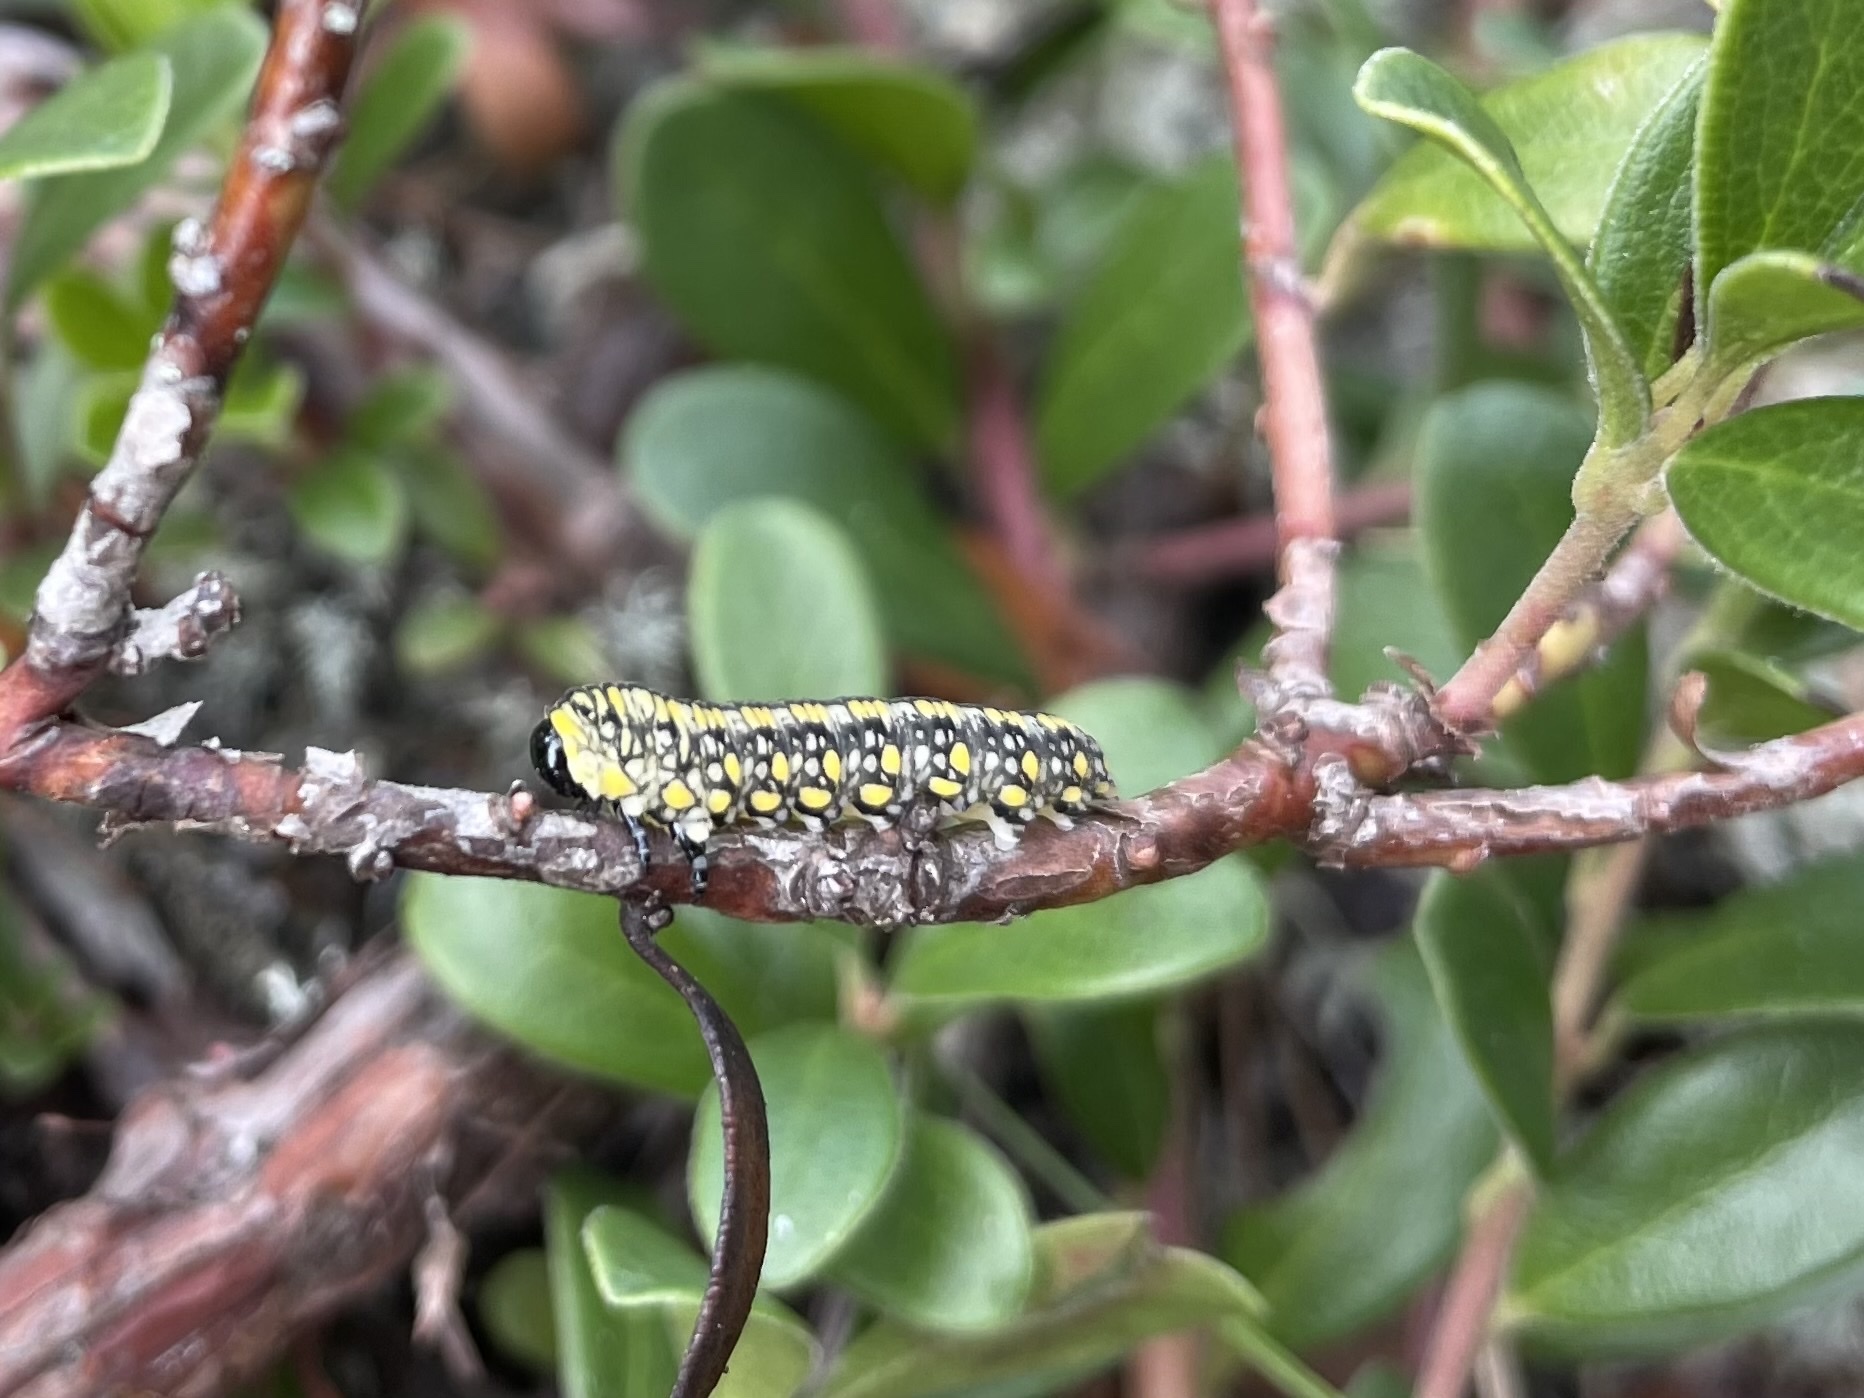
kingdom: Animalia
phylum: Arthropoda
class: Insecta
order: Hymenoptera
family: Diprionidae
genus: Diprion
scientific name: Diprion similis
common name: Pine sawfly
